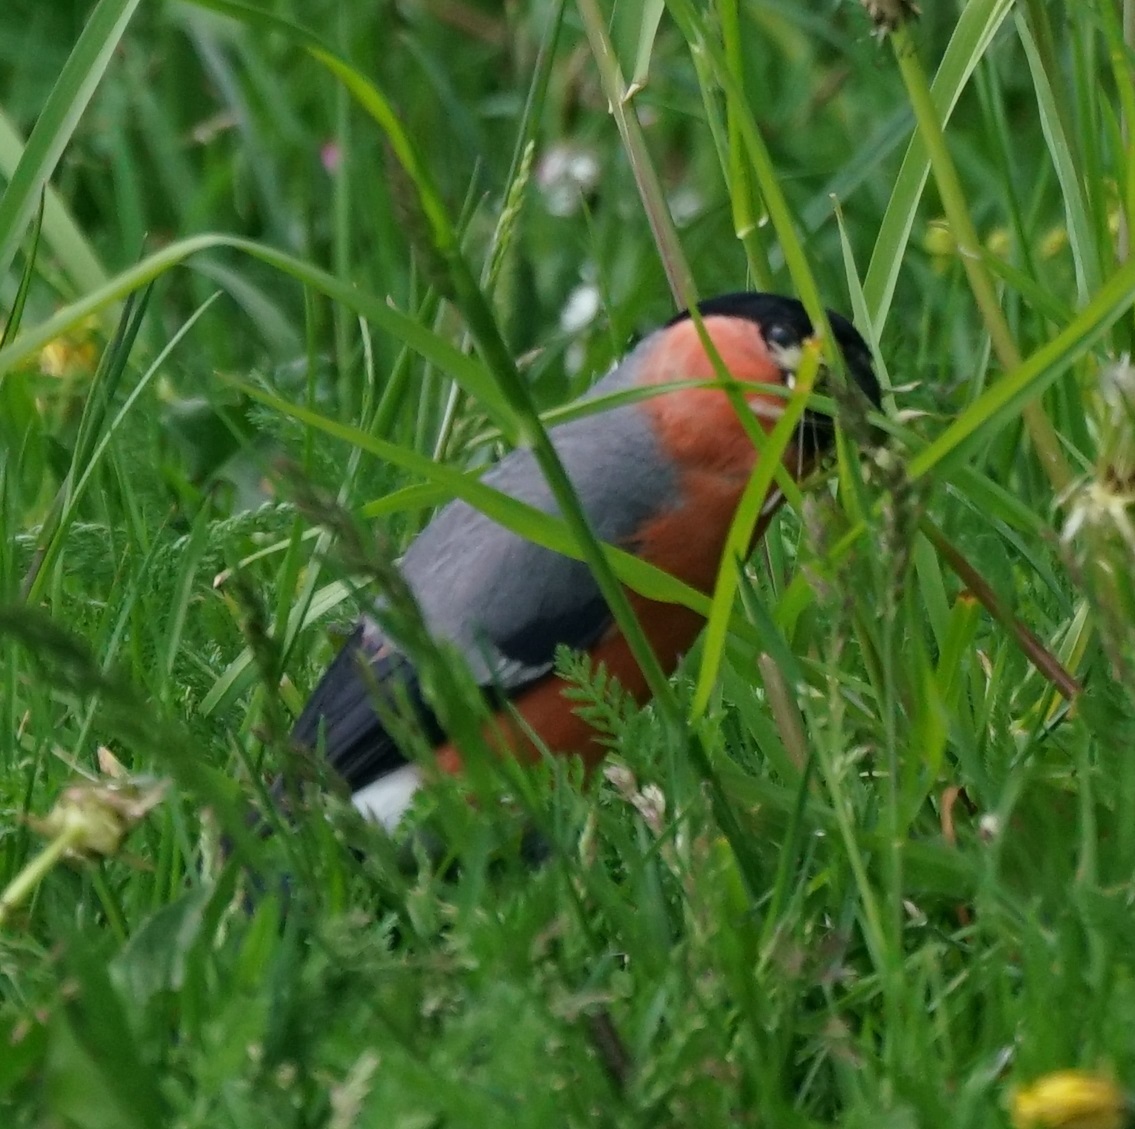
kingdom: Animalia
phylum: Chordata
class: Aves
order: Passeriformes
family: Fringillidae
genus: Pyrrhula
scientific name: Pyrrhula pyrrhula
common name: Eurasian bullfinch
